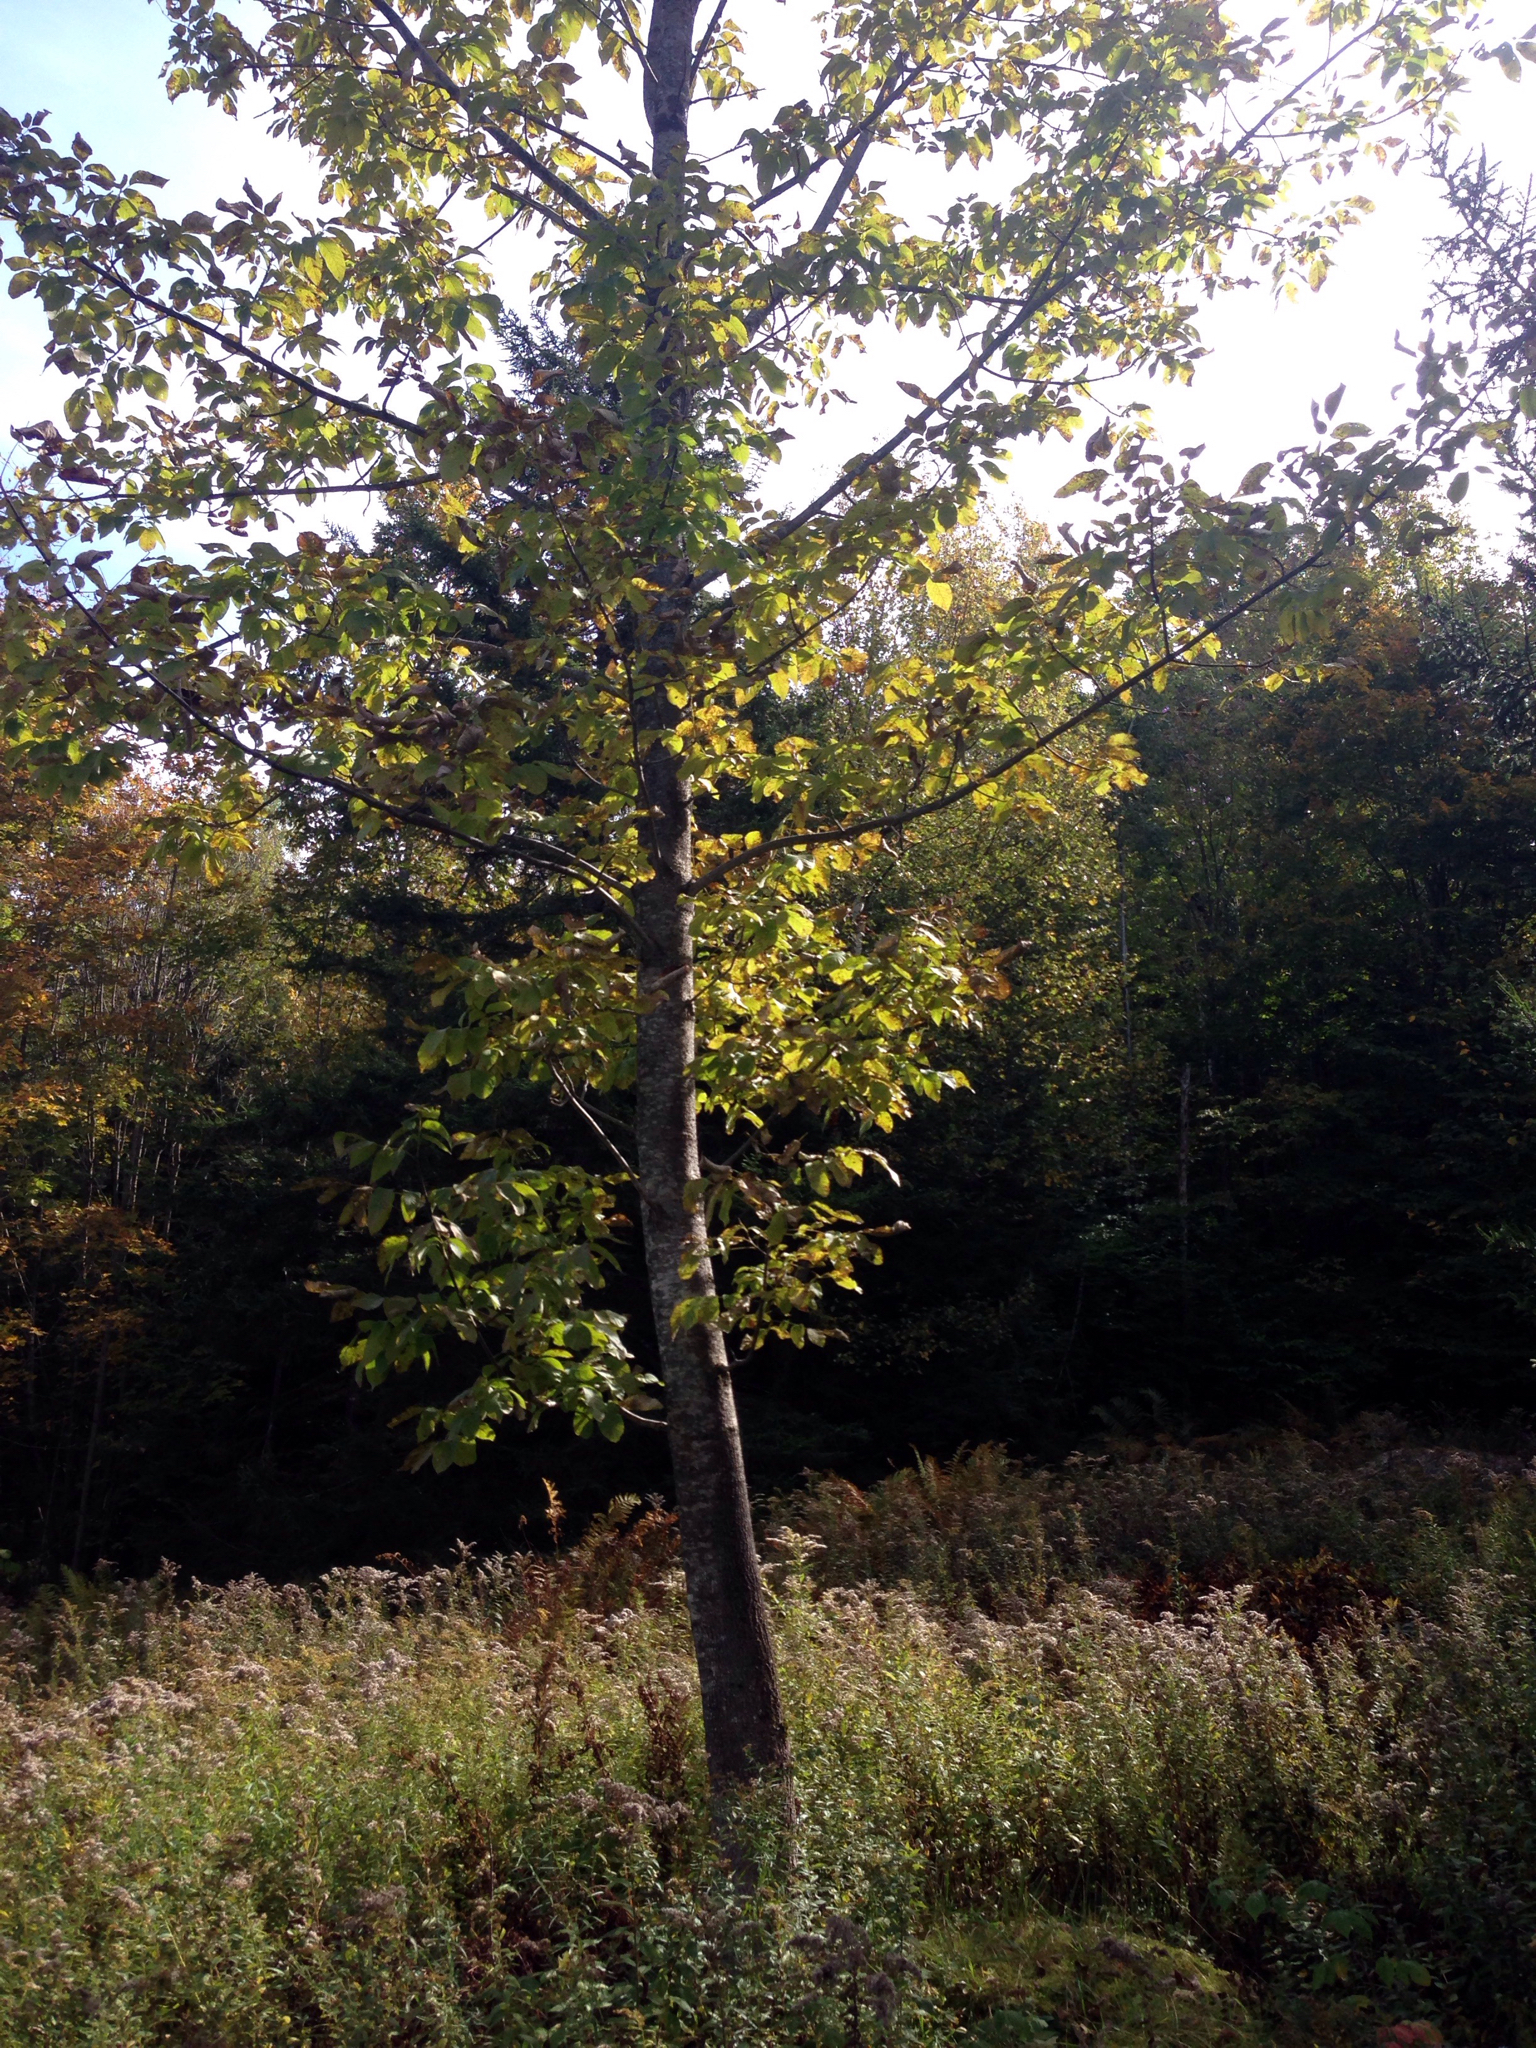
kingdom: Plantae
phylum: Tracheophyta
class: Magnoliopsida
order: Lamiales
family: Oleaceae
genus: Fraxinus
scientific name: Fraxinus americana
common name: White ash
